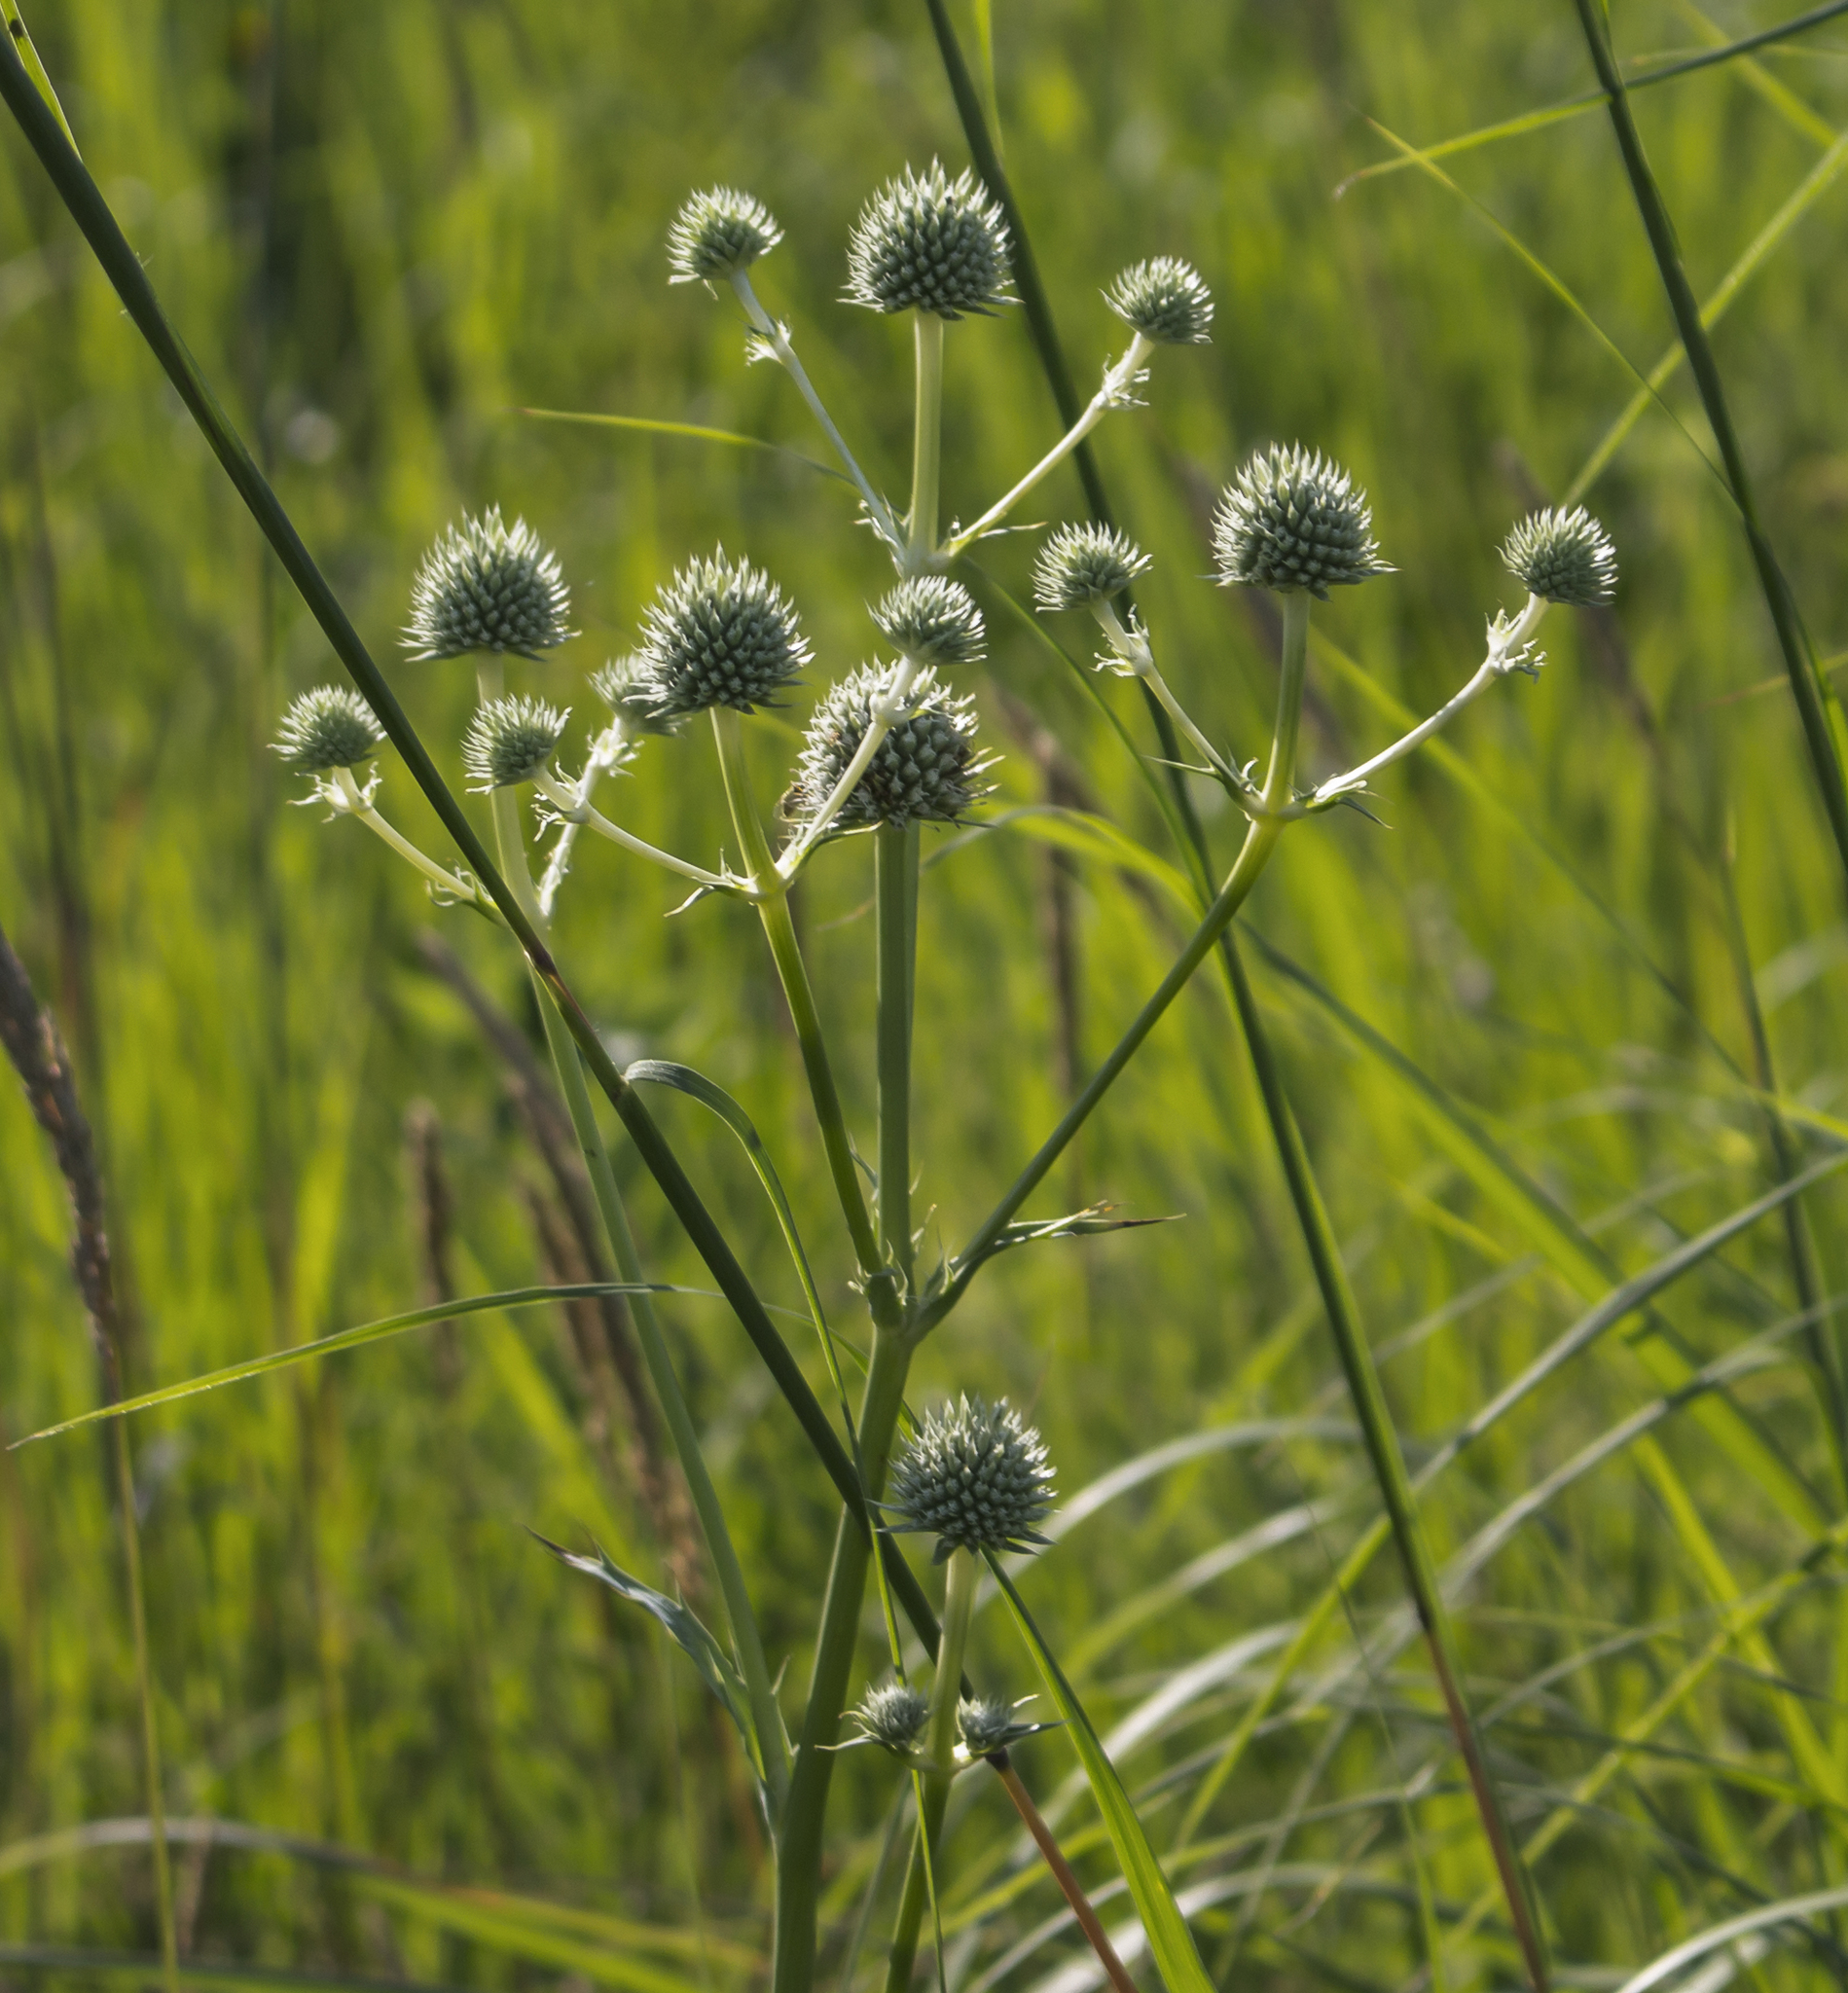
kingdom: Plantae
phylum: Tracheophyta
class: Magnoliopsida
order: Apiales
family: Apiaceae
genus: Eryngium
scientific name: Eryngium yuccifolium
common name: Button eryngo
